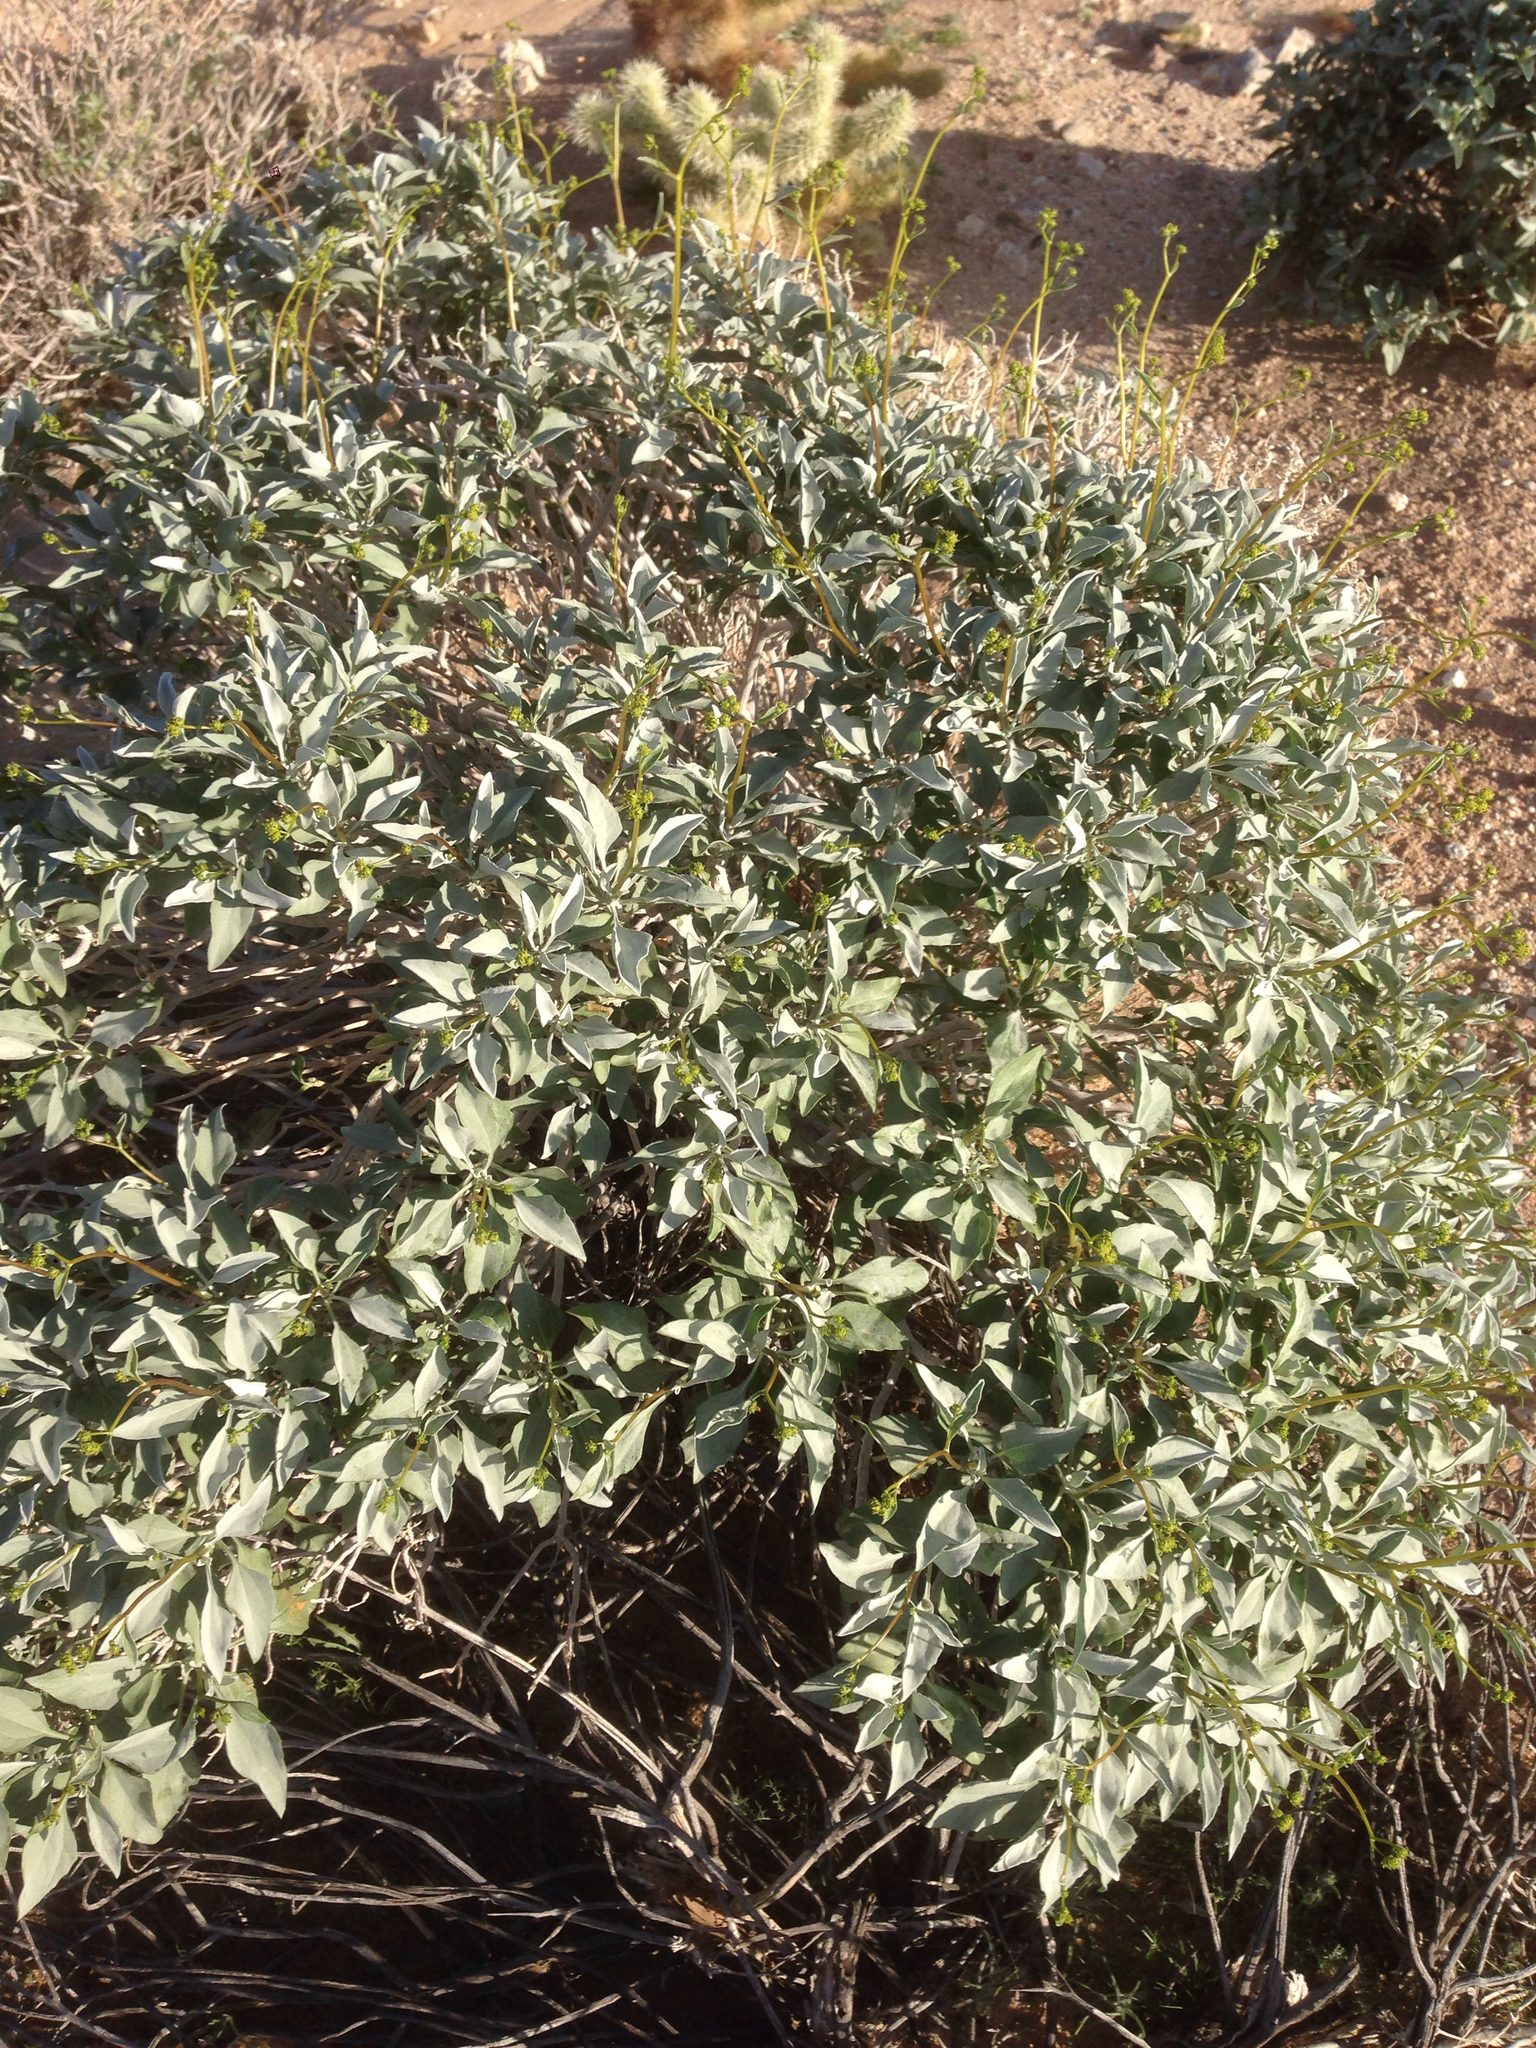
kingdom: Plantae
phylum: Tracheophyta
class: Magnoliopsida
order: Asterales
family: Asteraceae
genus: Encelia
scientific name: Encelia farinosa
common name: Brittlebush
